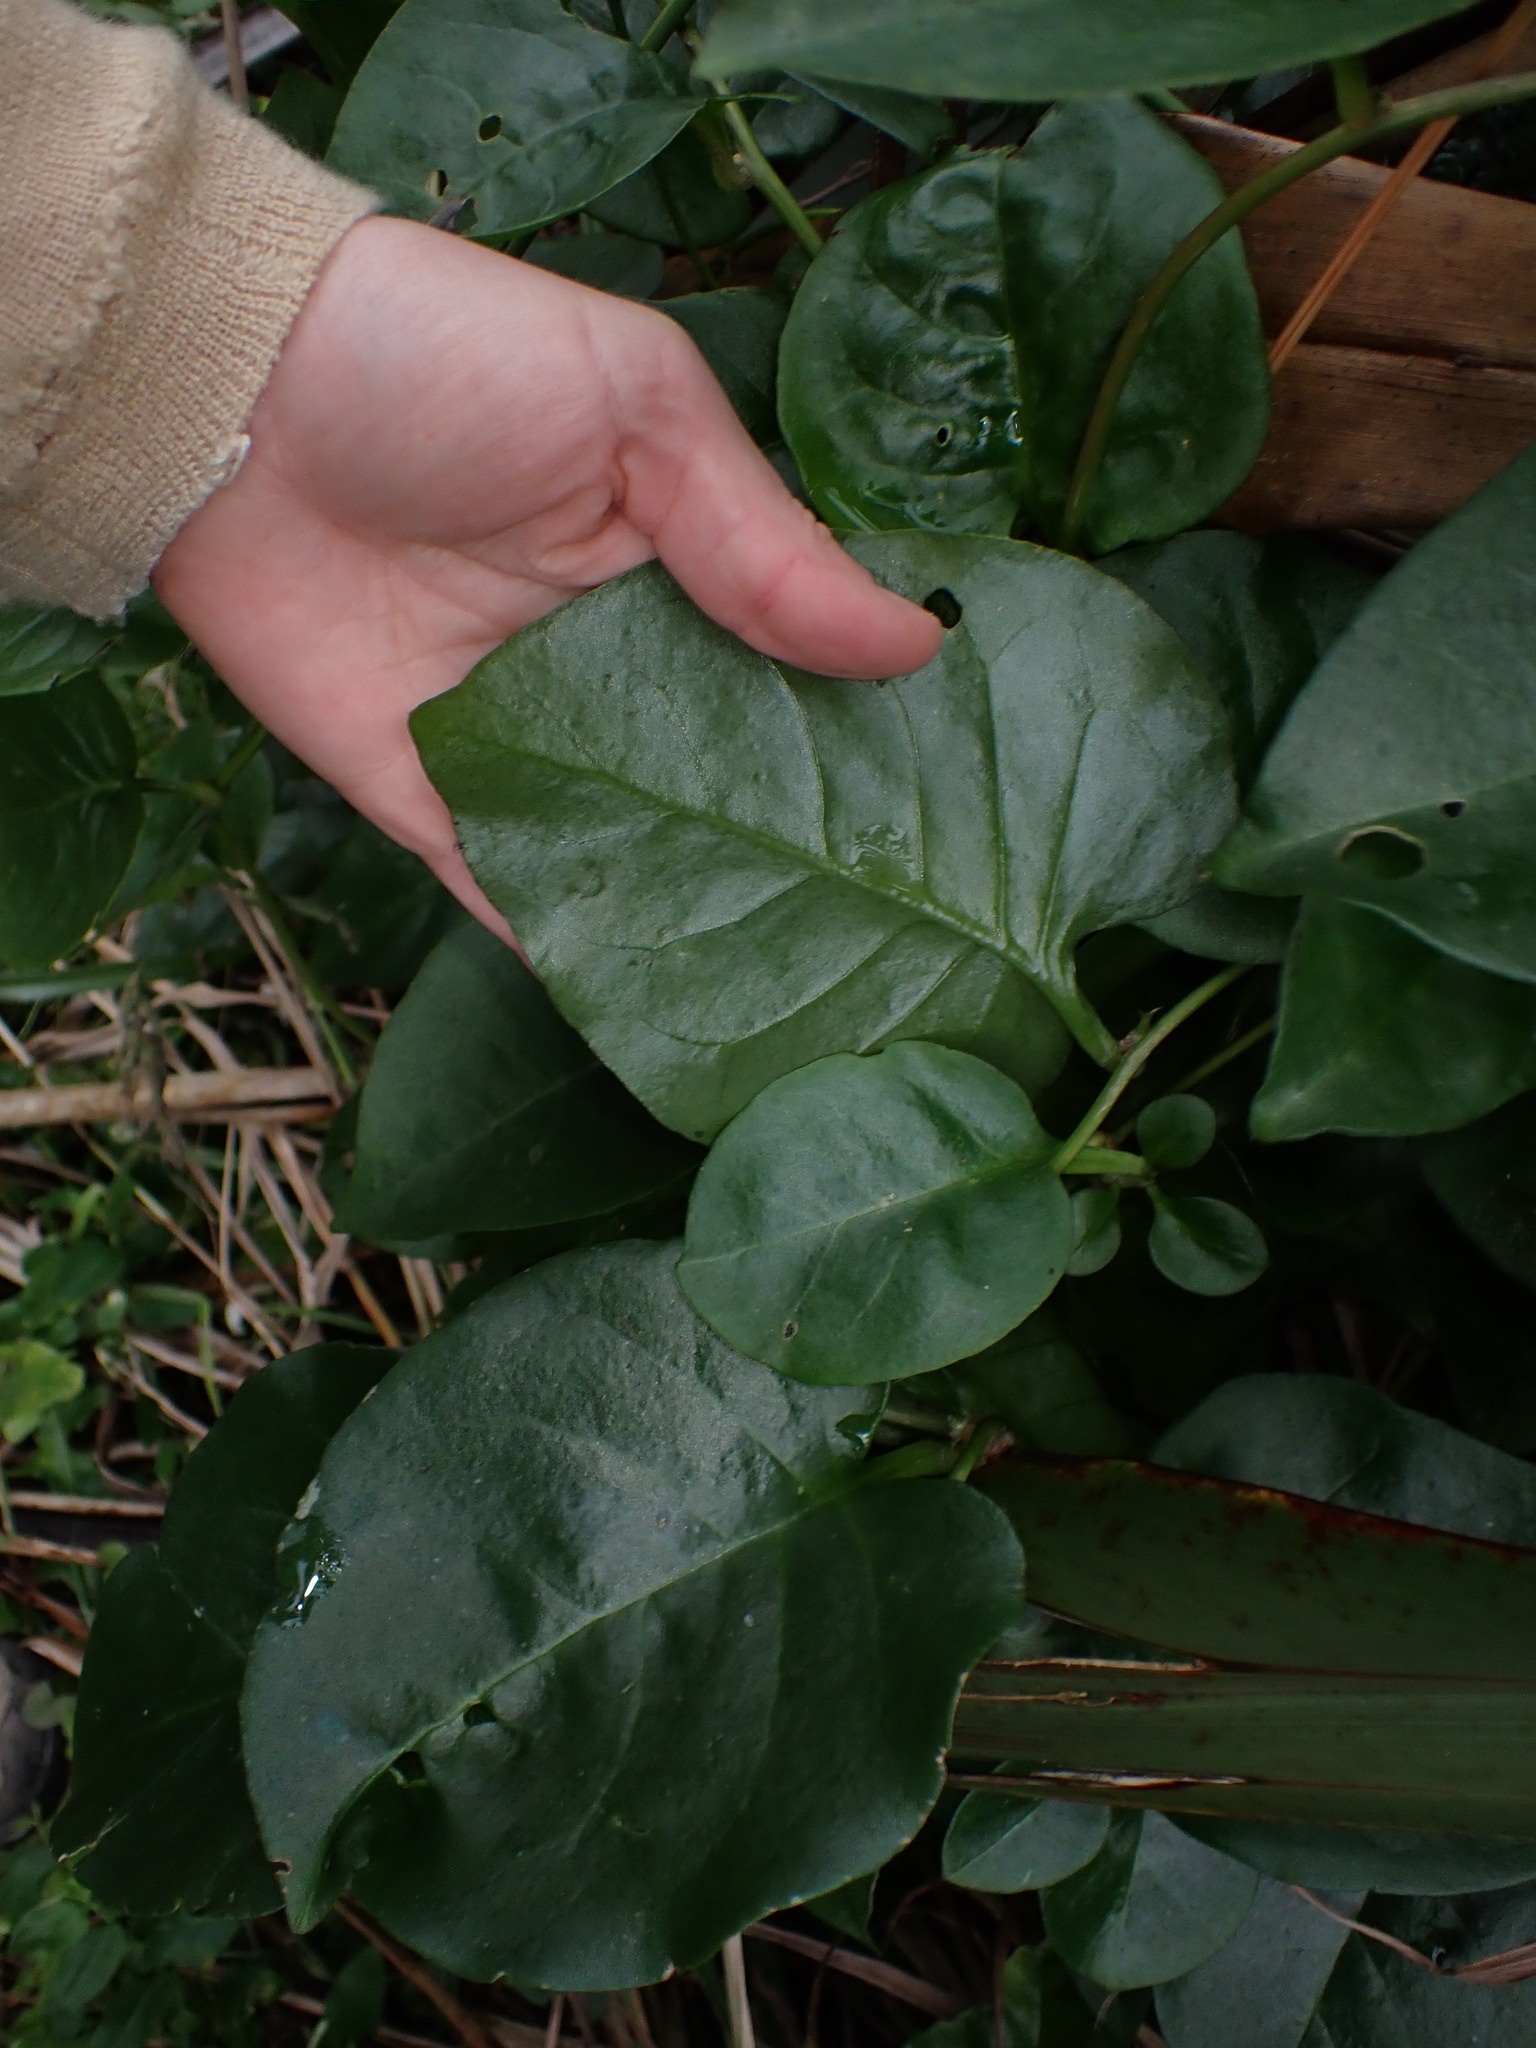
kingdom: Plantae
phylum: Tracheophyta
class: Magnoliopsida
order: Caryophyllales
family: Basellaceae
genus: Anredera
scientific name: Anredera cordifolia
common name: Heartleaf madeiravine
